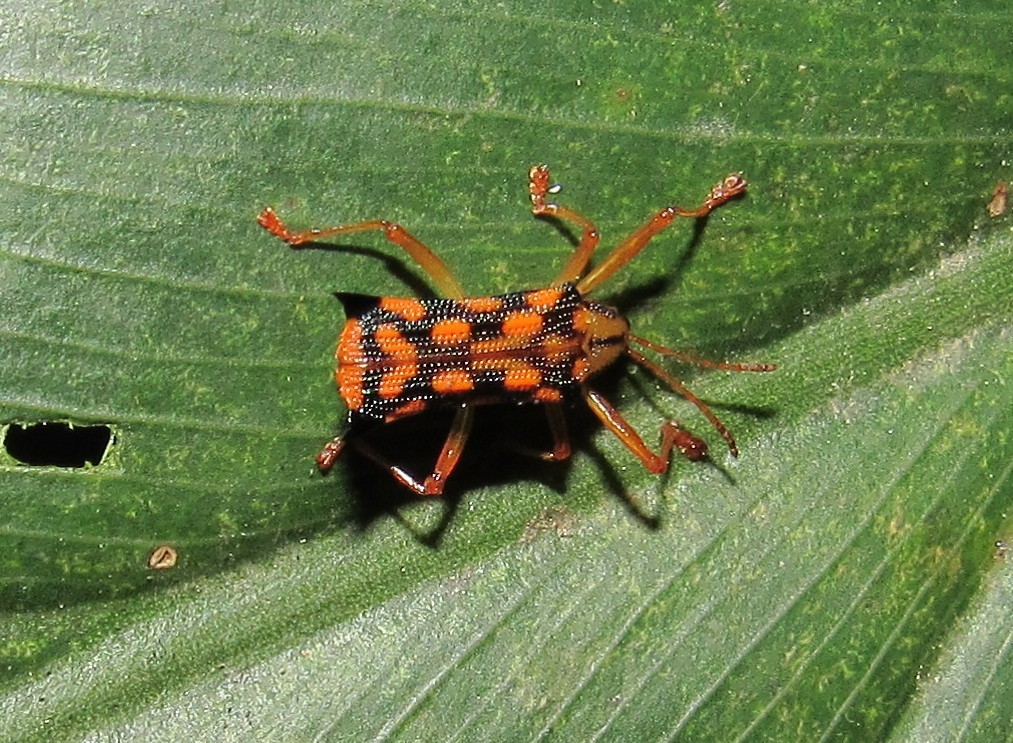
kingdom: Animalia
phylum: Arthropoda
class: Insecta
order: Coleoptera
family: Chrysomelidae
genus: Sceloenopla
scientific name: Sceloenopla pretiosa
